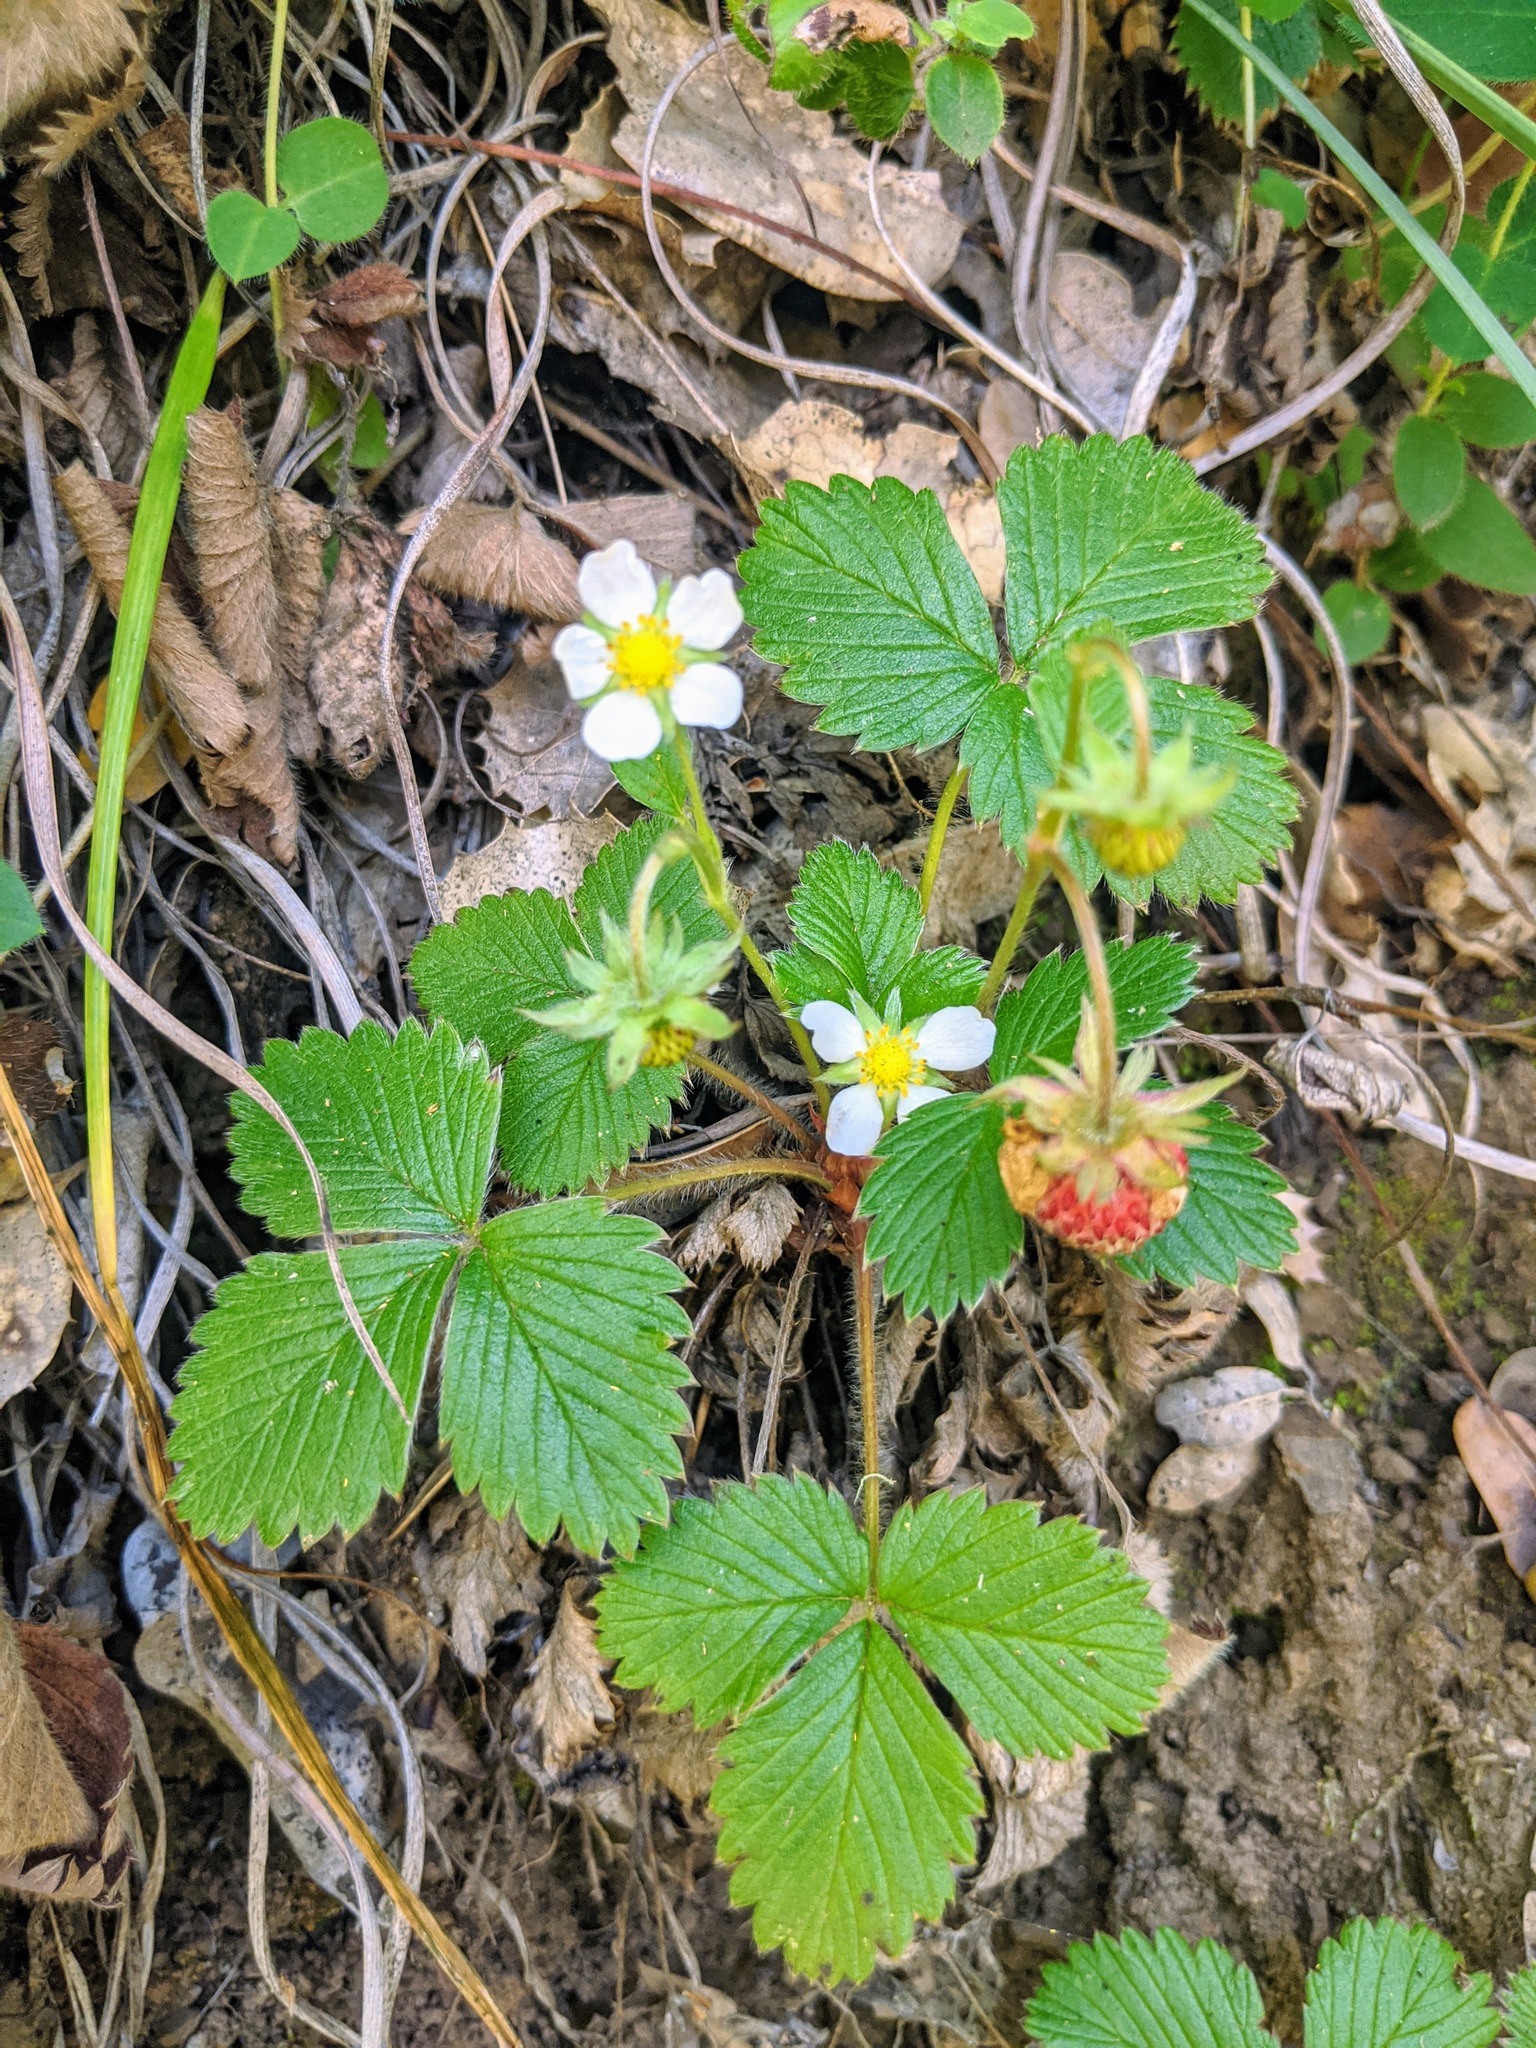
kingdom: Plantae
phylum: Tracheophyta
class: Magnoliopsida
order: Rosales
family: Rosaceae
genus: Fragaria
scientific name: Fragaria vesca
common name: Wild strawberry
